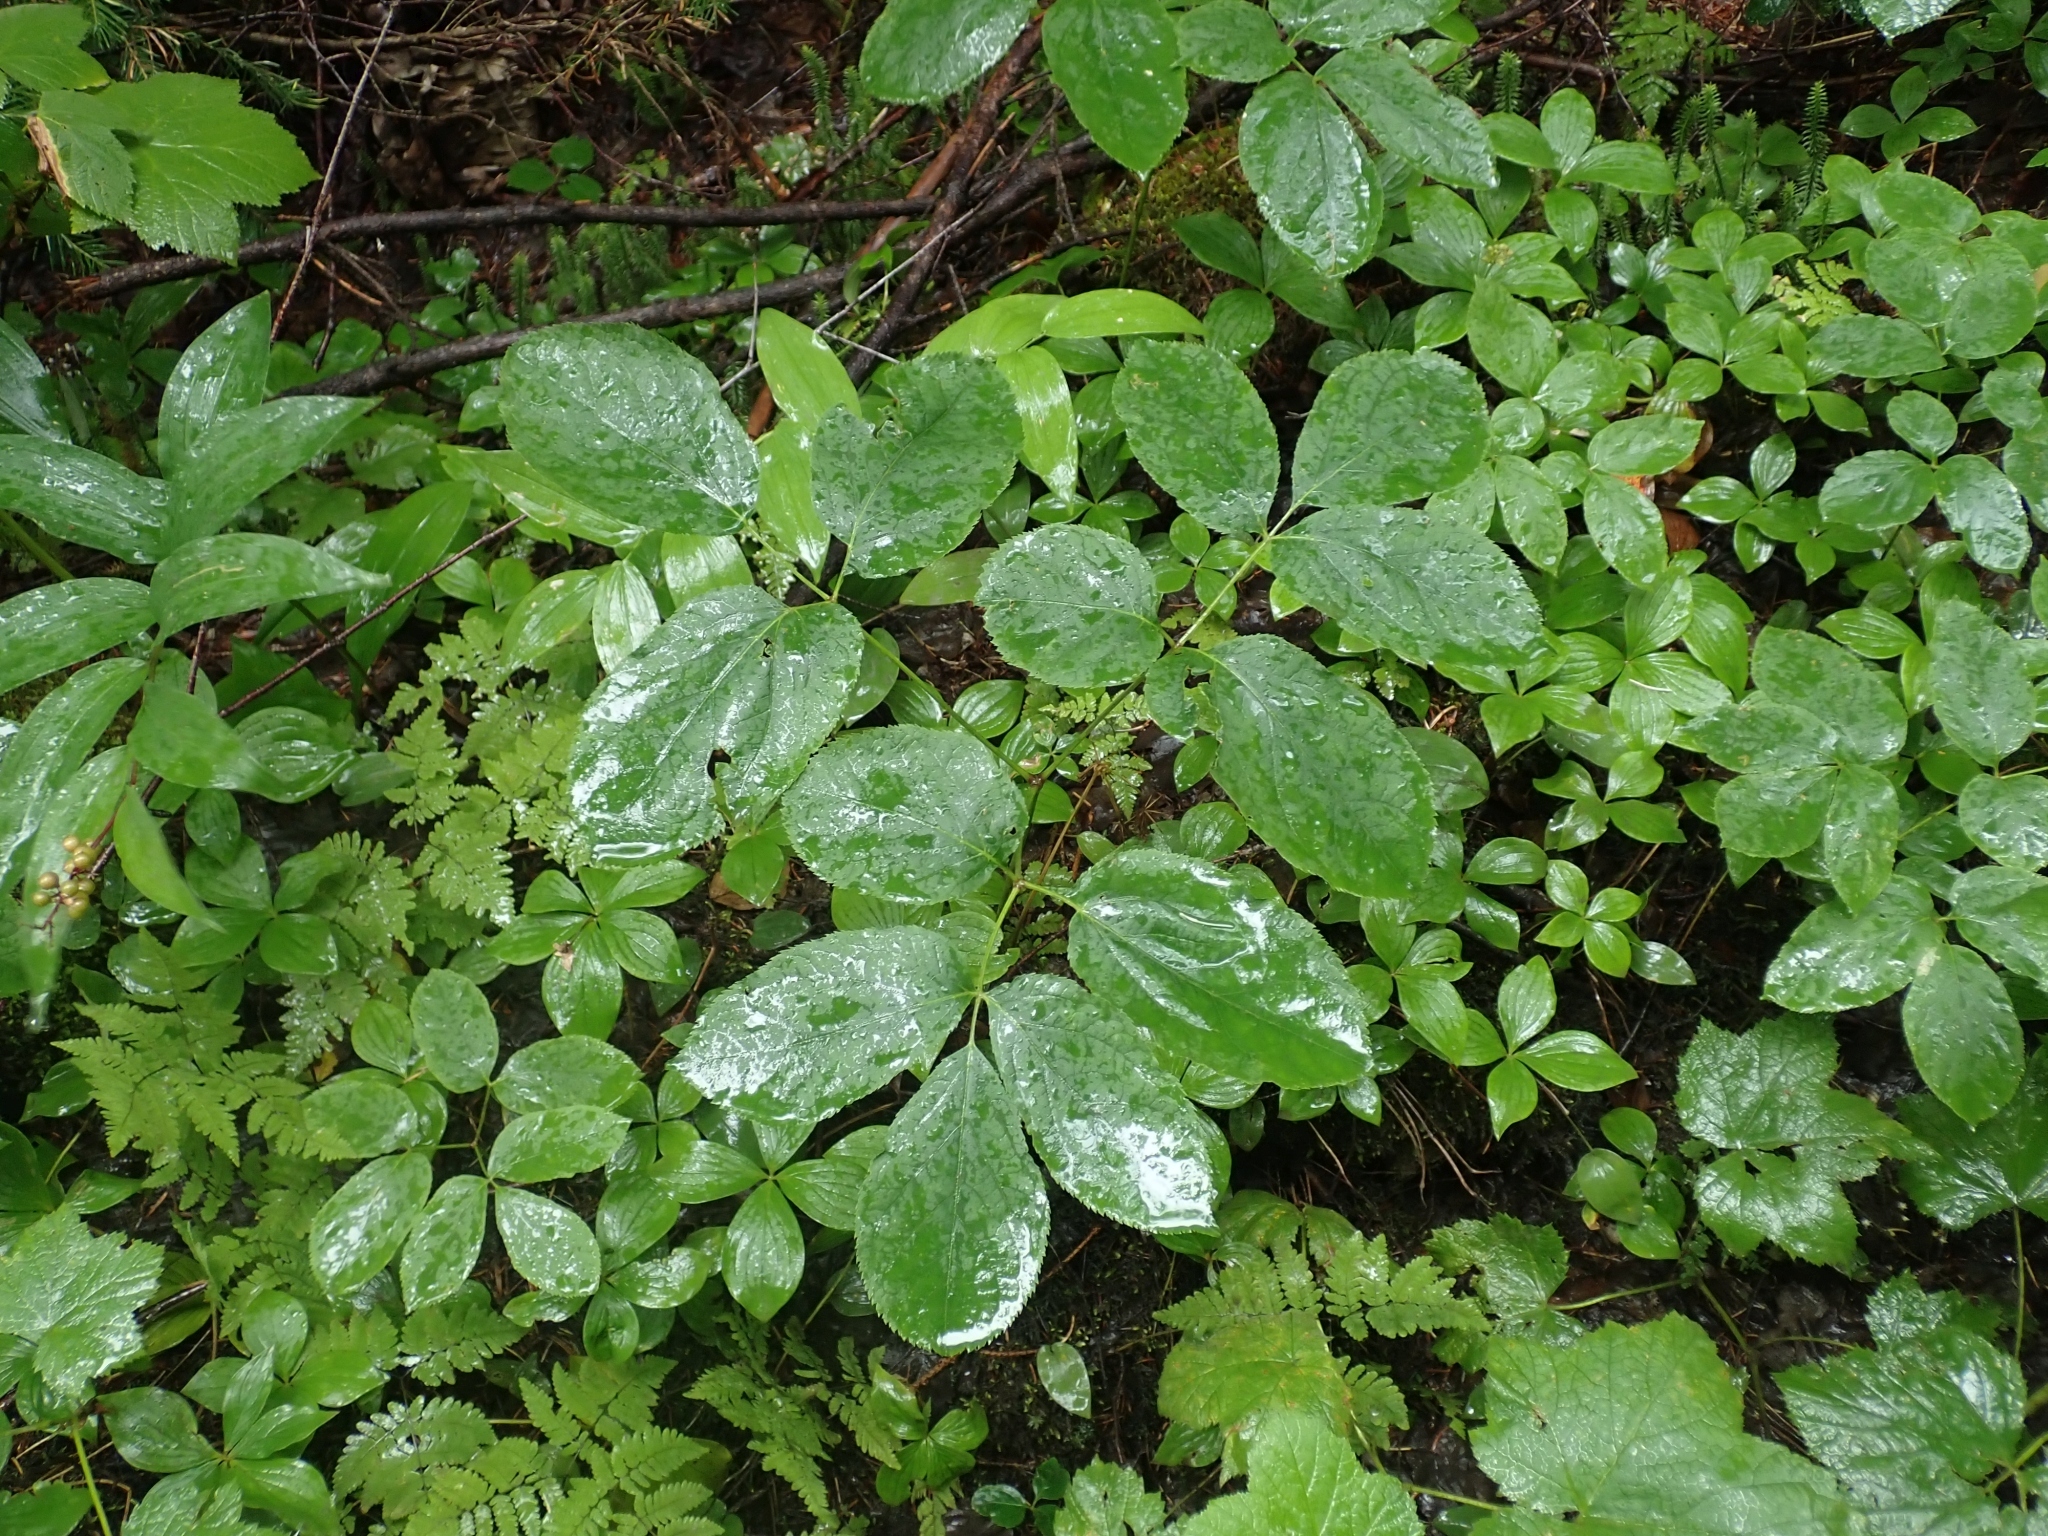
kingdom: Plantae
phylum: Tracheophyta
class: Magnoliopsida
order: Apiales
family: Araliaceae
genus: Aralia
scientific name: Aralia nudicaulis
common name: Wild sarsaparilla
